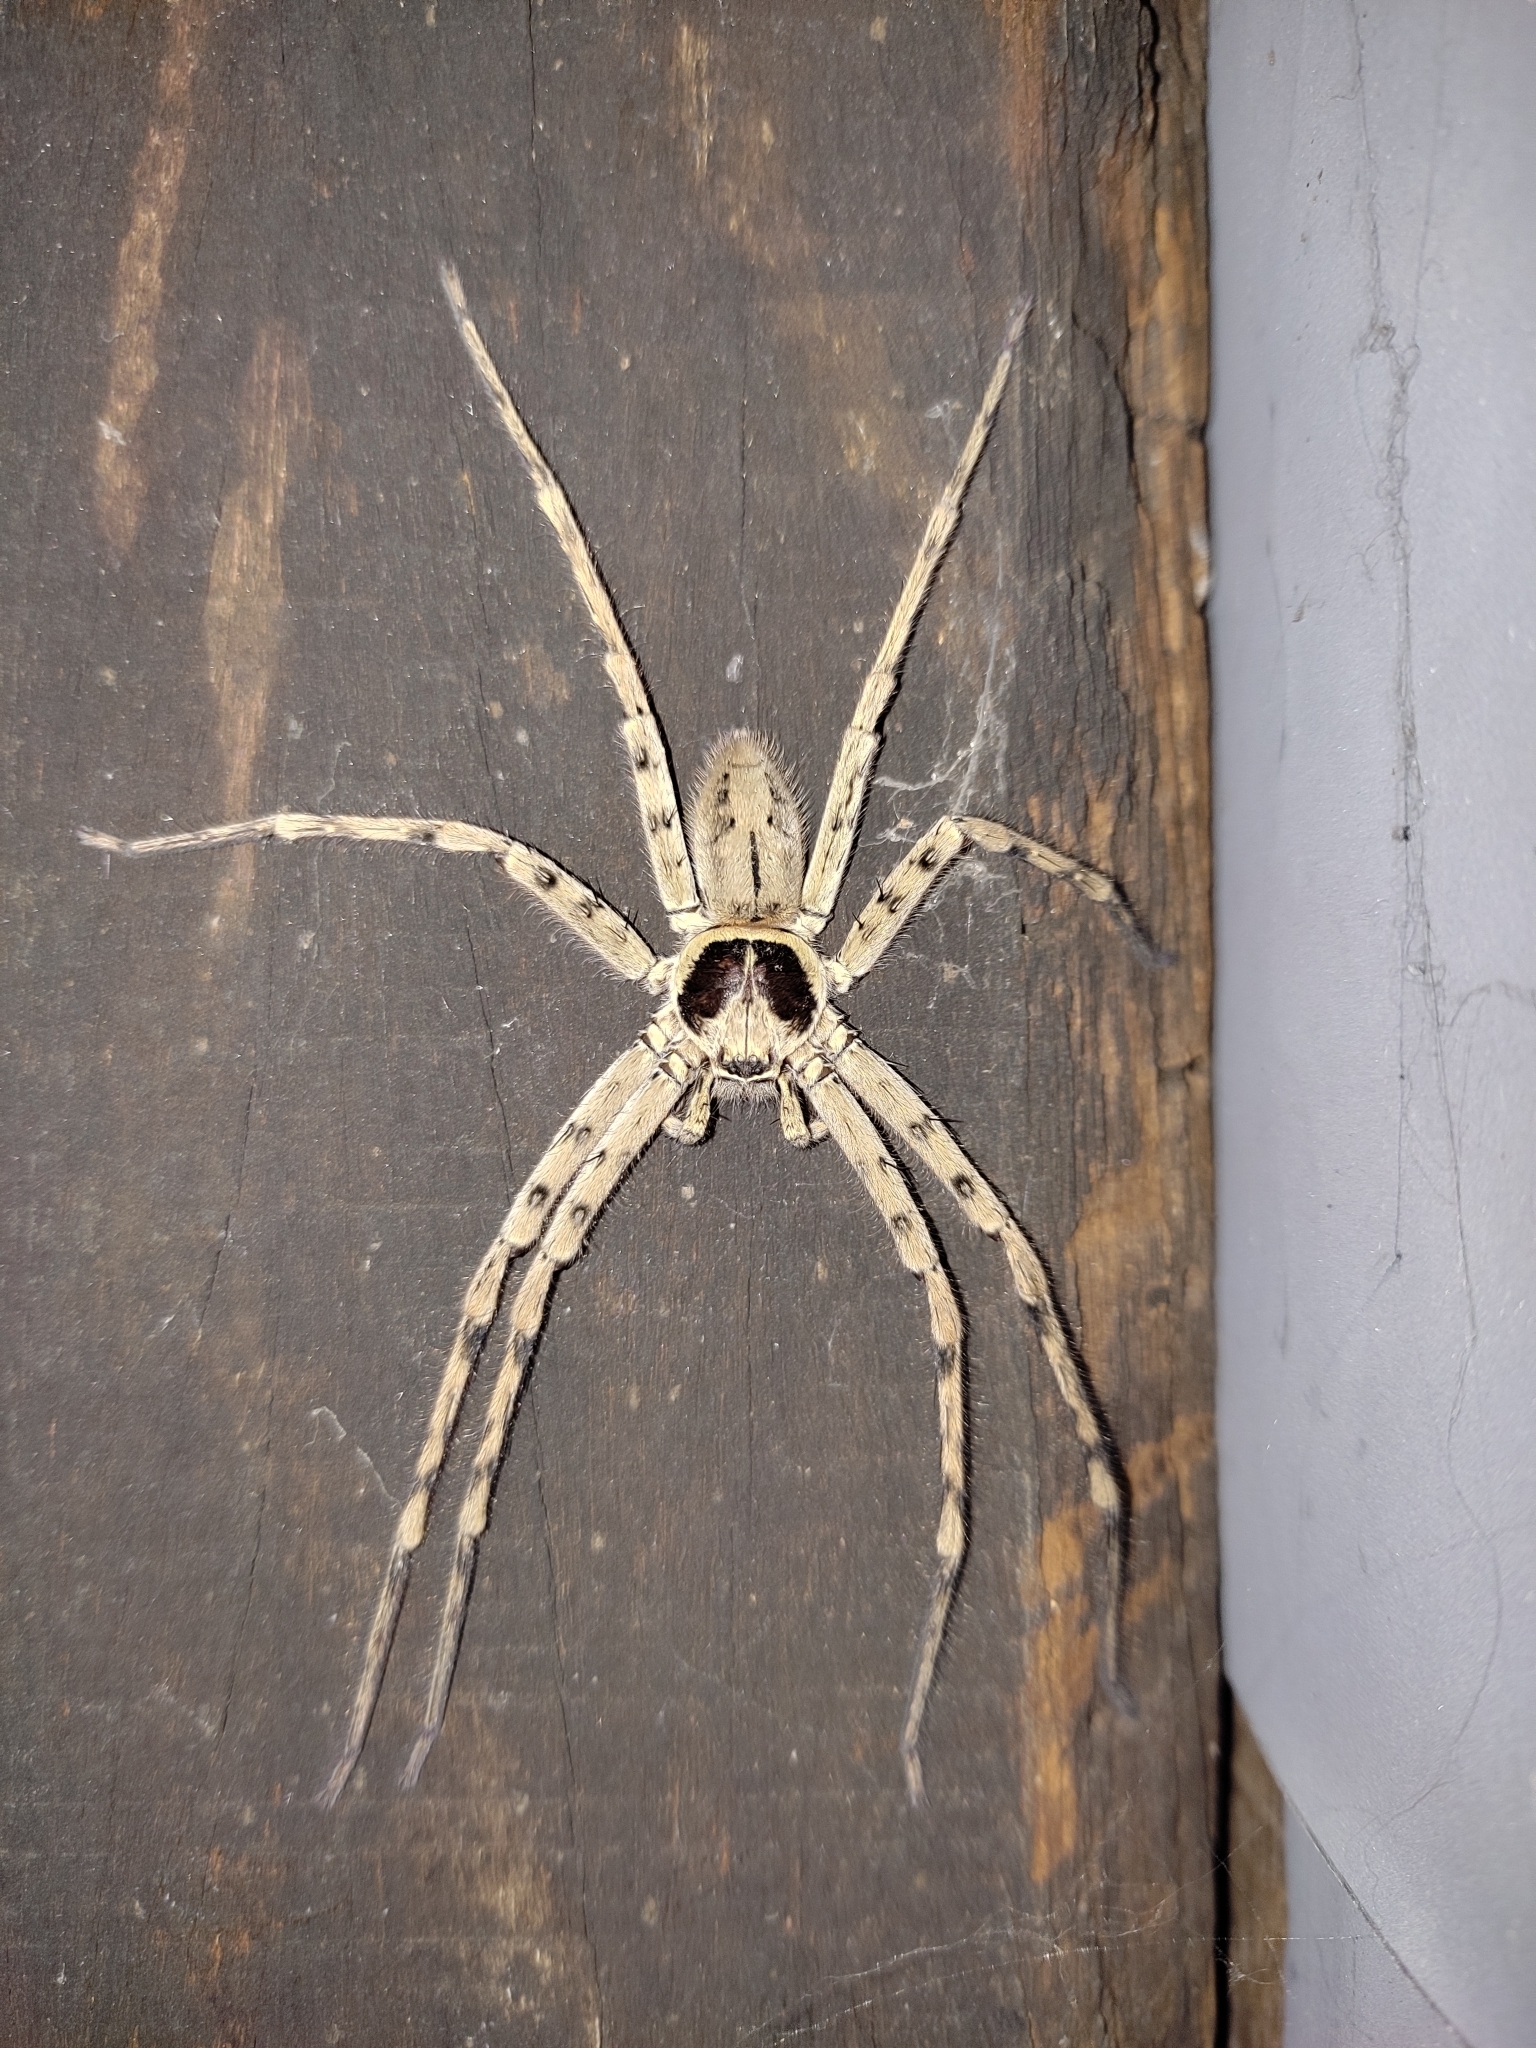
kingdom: Animalia
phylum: Arthropoda
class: Arachnida
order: Araneae
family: Sparassidae
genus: Heteropoda
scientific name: Heteropoda venatoria
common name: Huntsman spider
